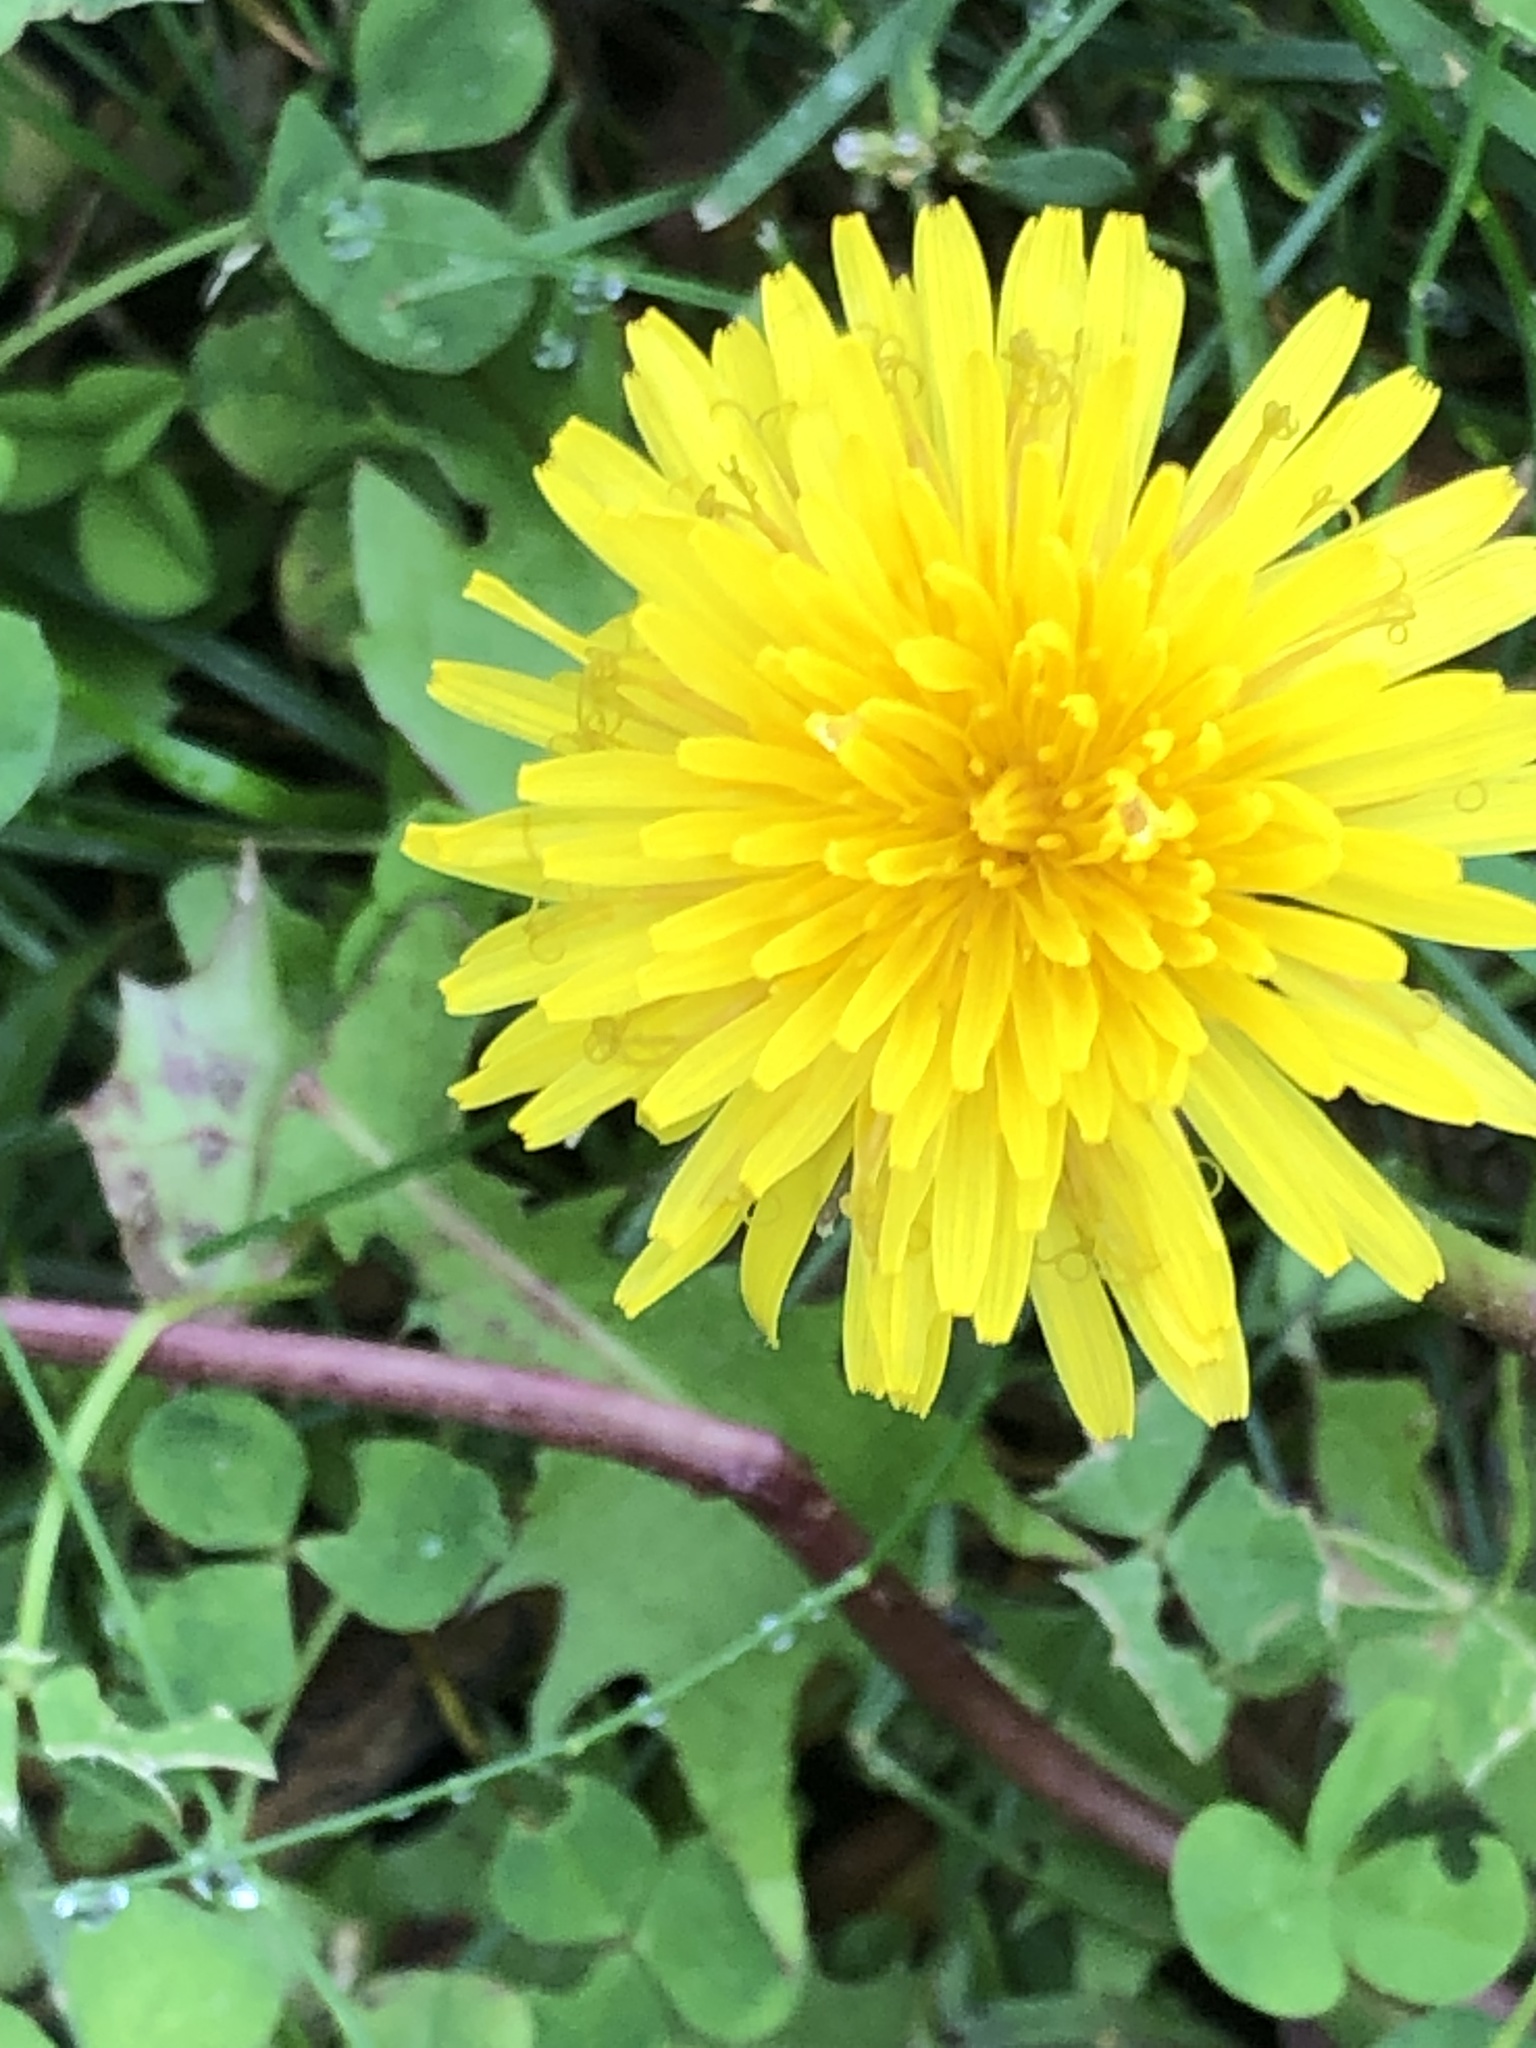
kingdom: Plantae
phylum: Tracheophyta
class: Magnoliopsida
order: Asterales
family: Asteraceae
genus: Taraxacum
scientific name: Taraxacum officinale
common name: Common dandelion
